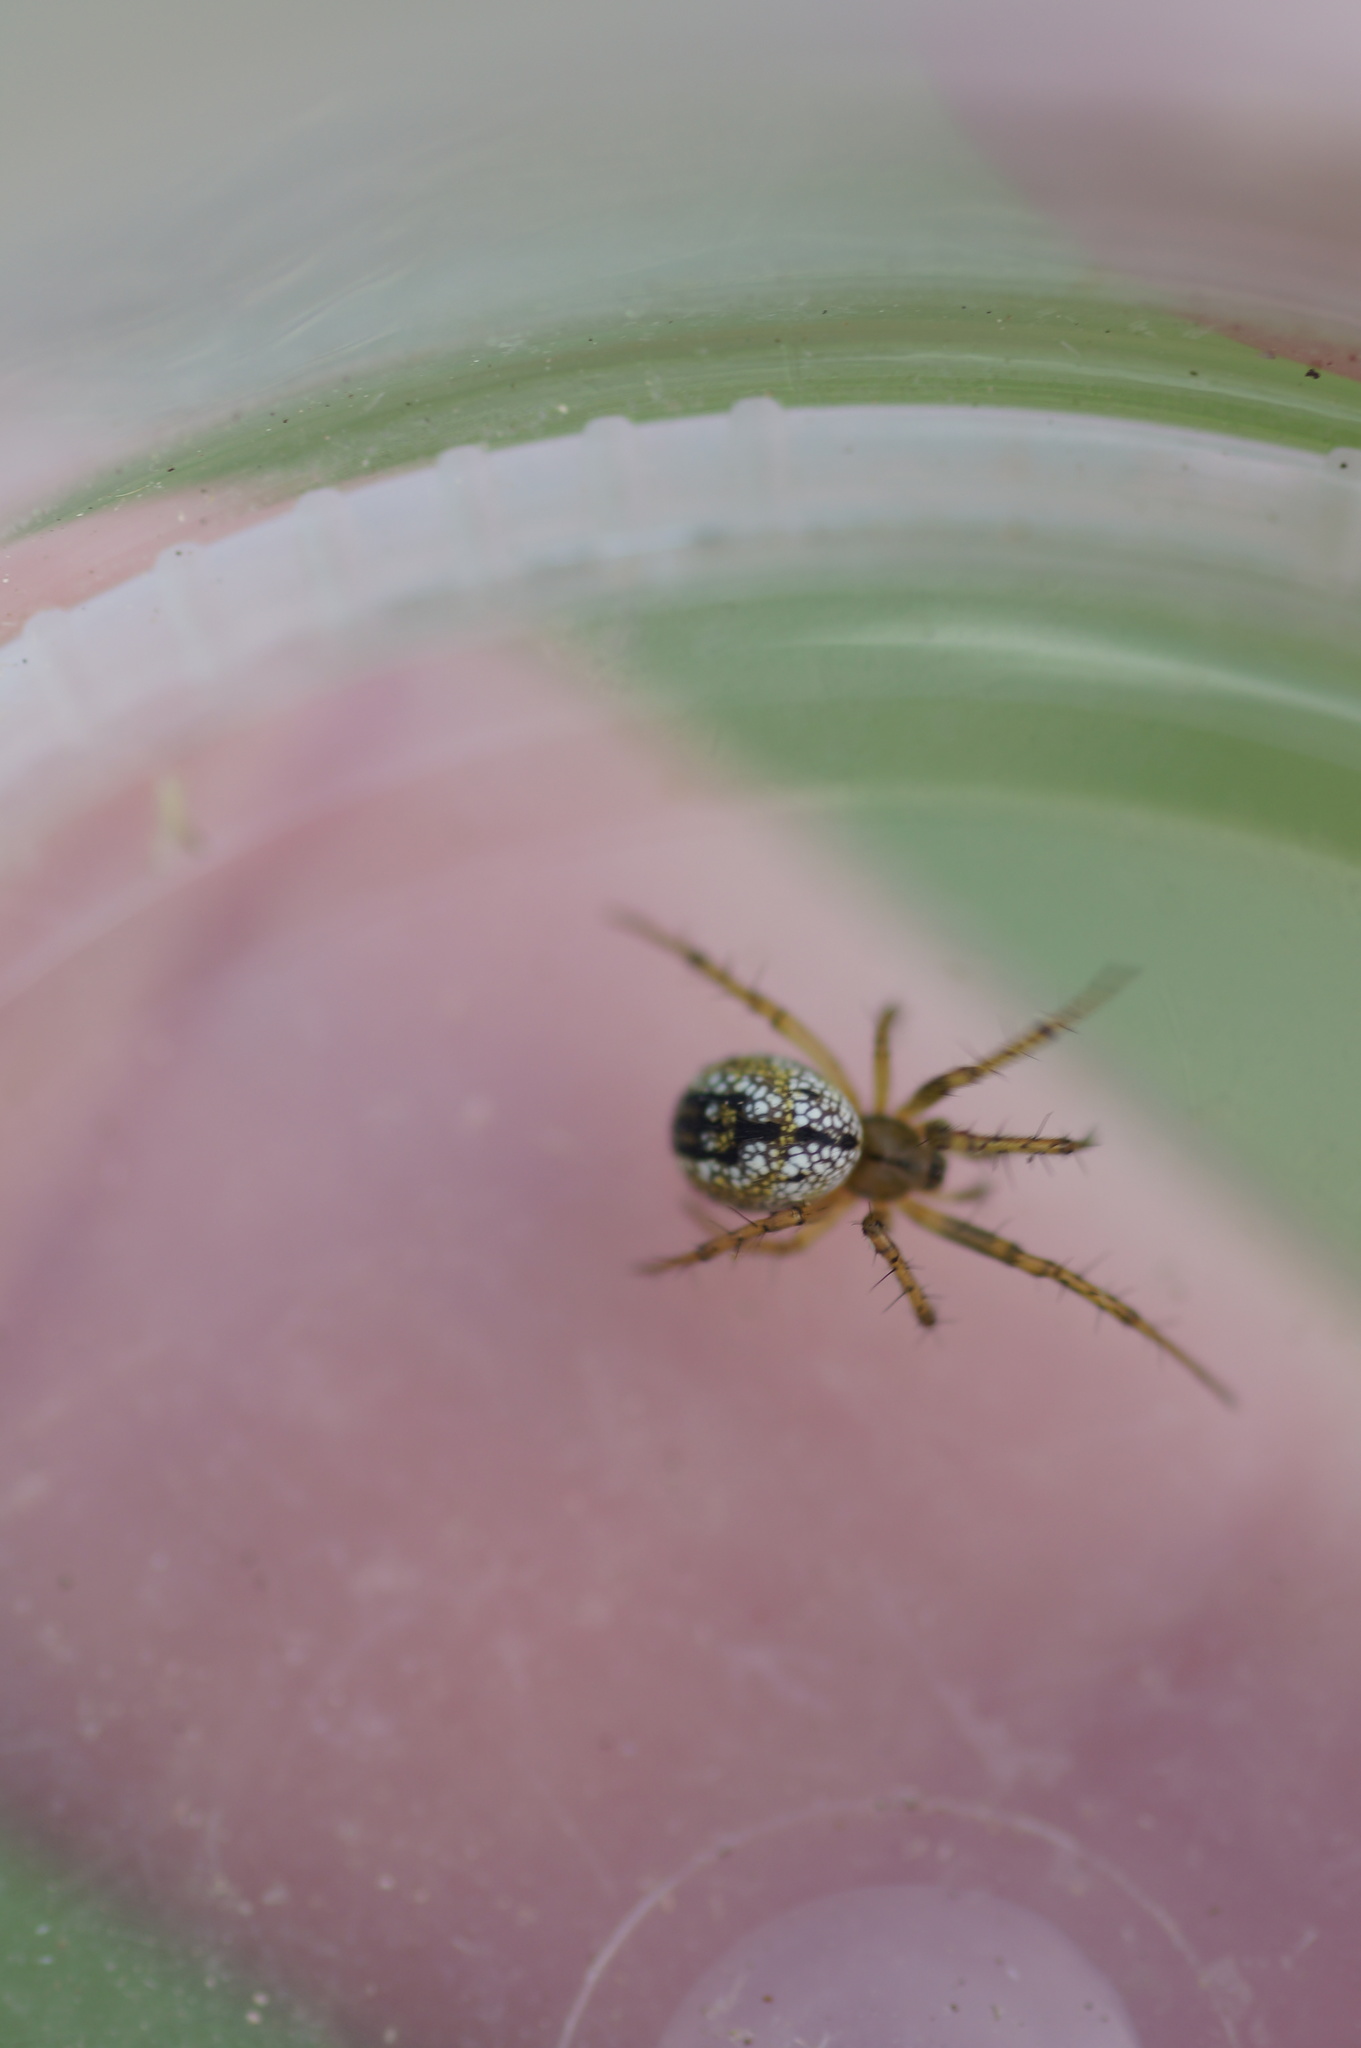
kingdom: Animalia
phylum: Arthropoda
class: Arachnida
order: Araneae
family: Araneidae
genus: Mangora
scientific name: Mangora acalypha
